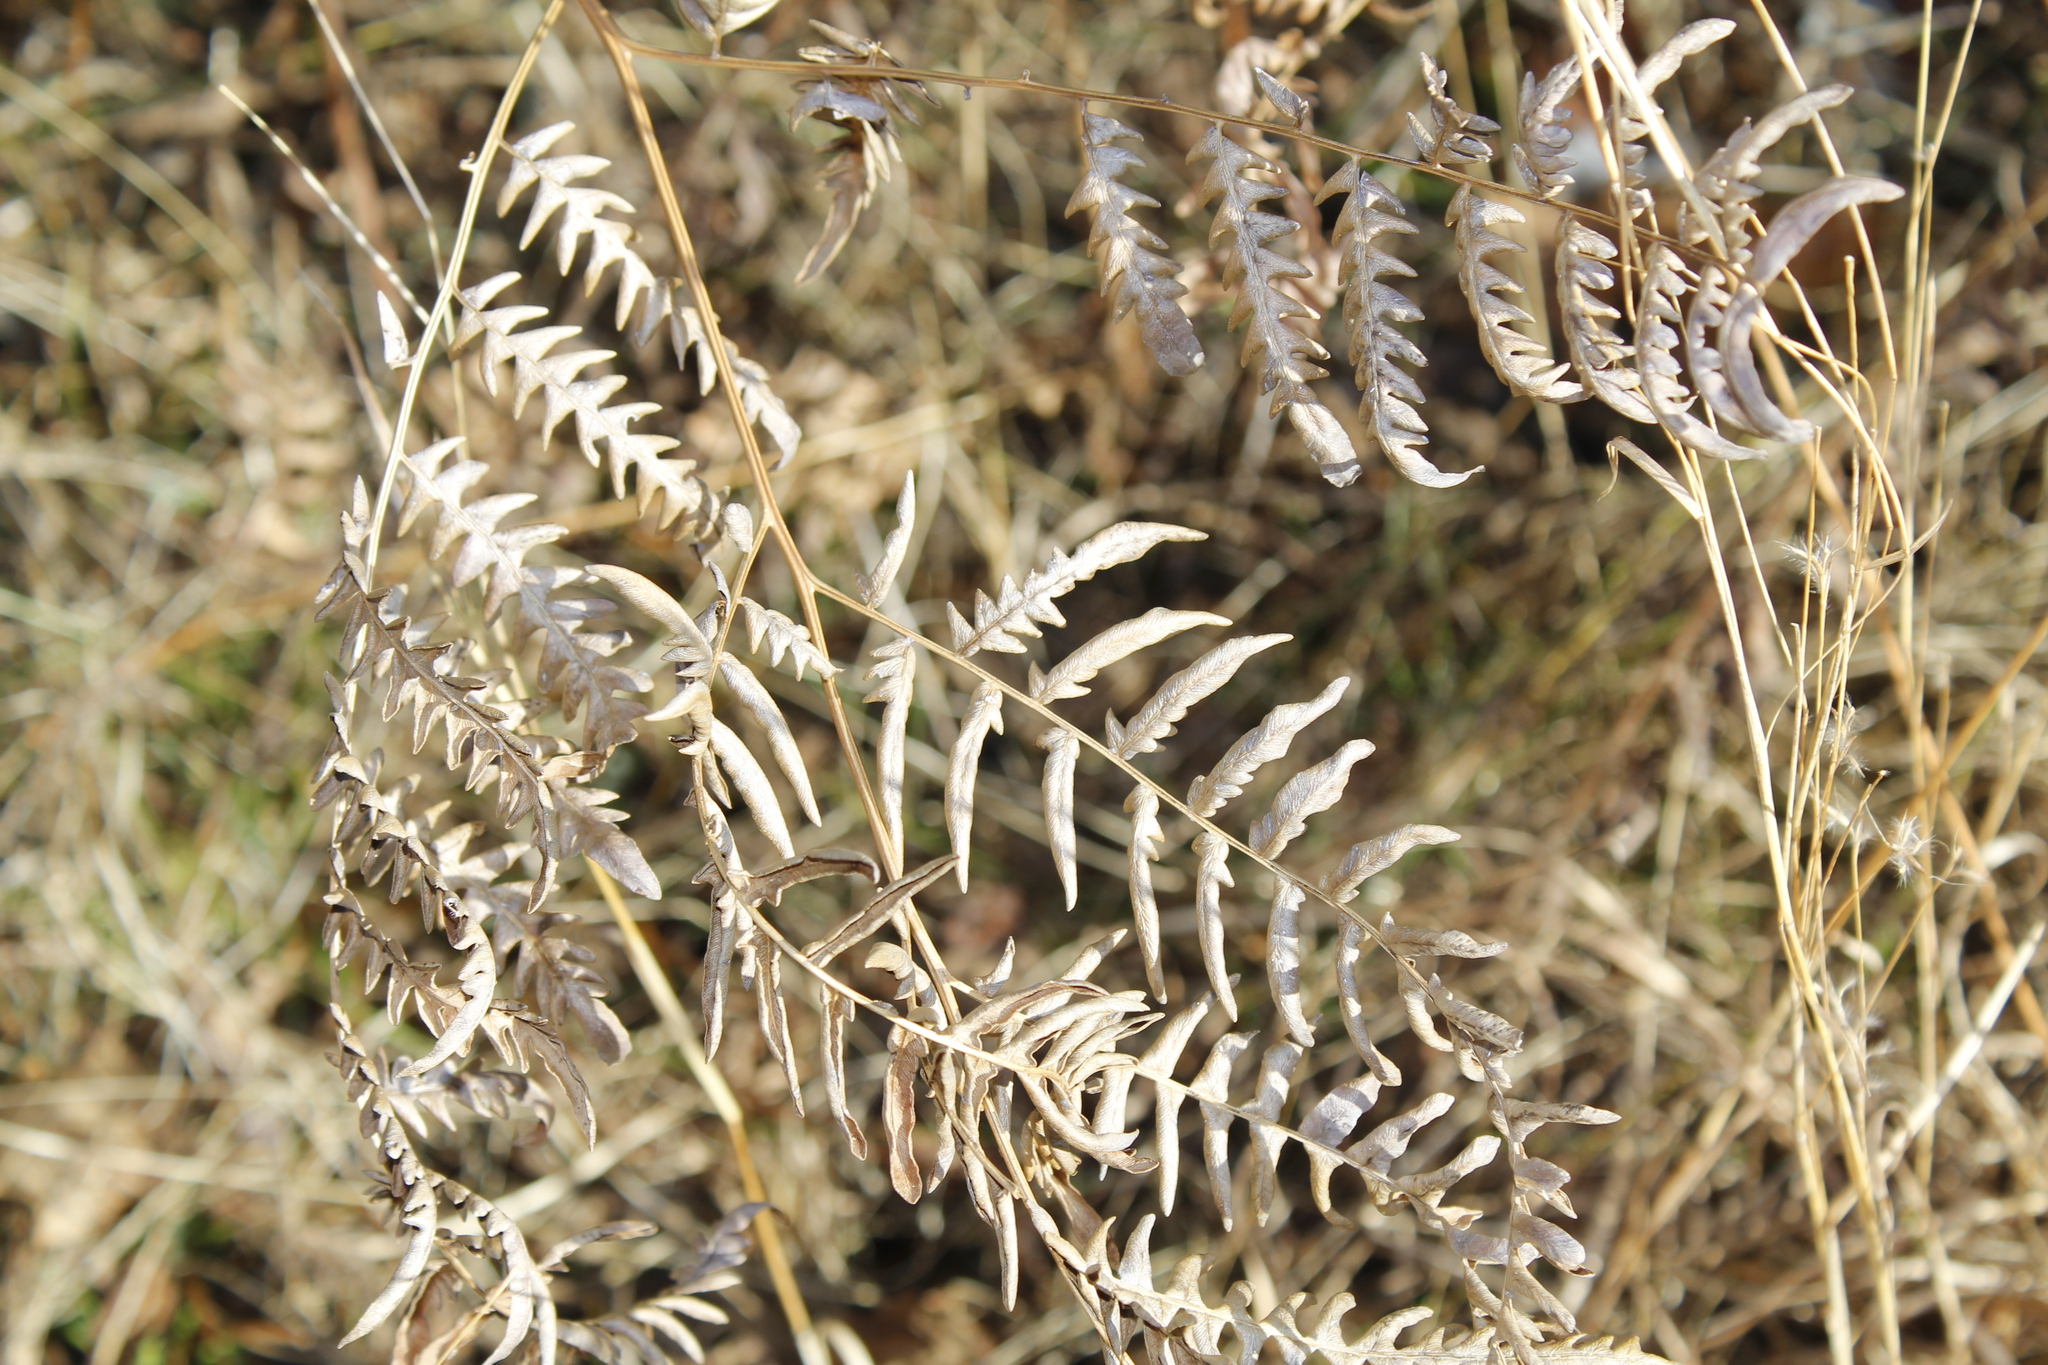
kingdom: Plantae
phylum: Tracheophyta
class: Polypodiopsida
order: Polypodiales
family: Dennstaedtiaceae
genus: Pteridium
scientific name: Pteridium aquilinum
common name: Bracken
